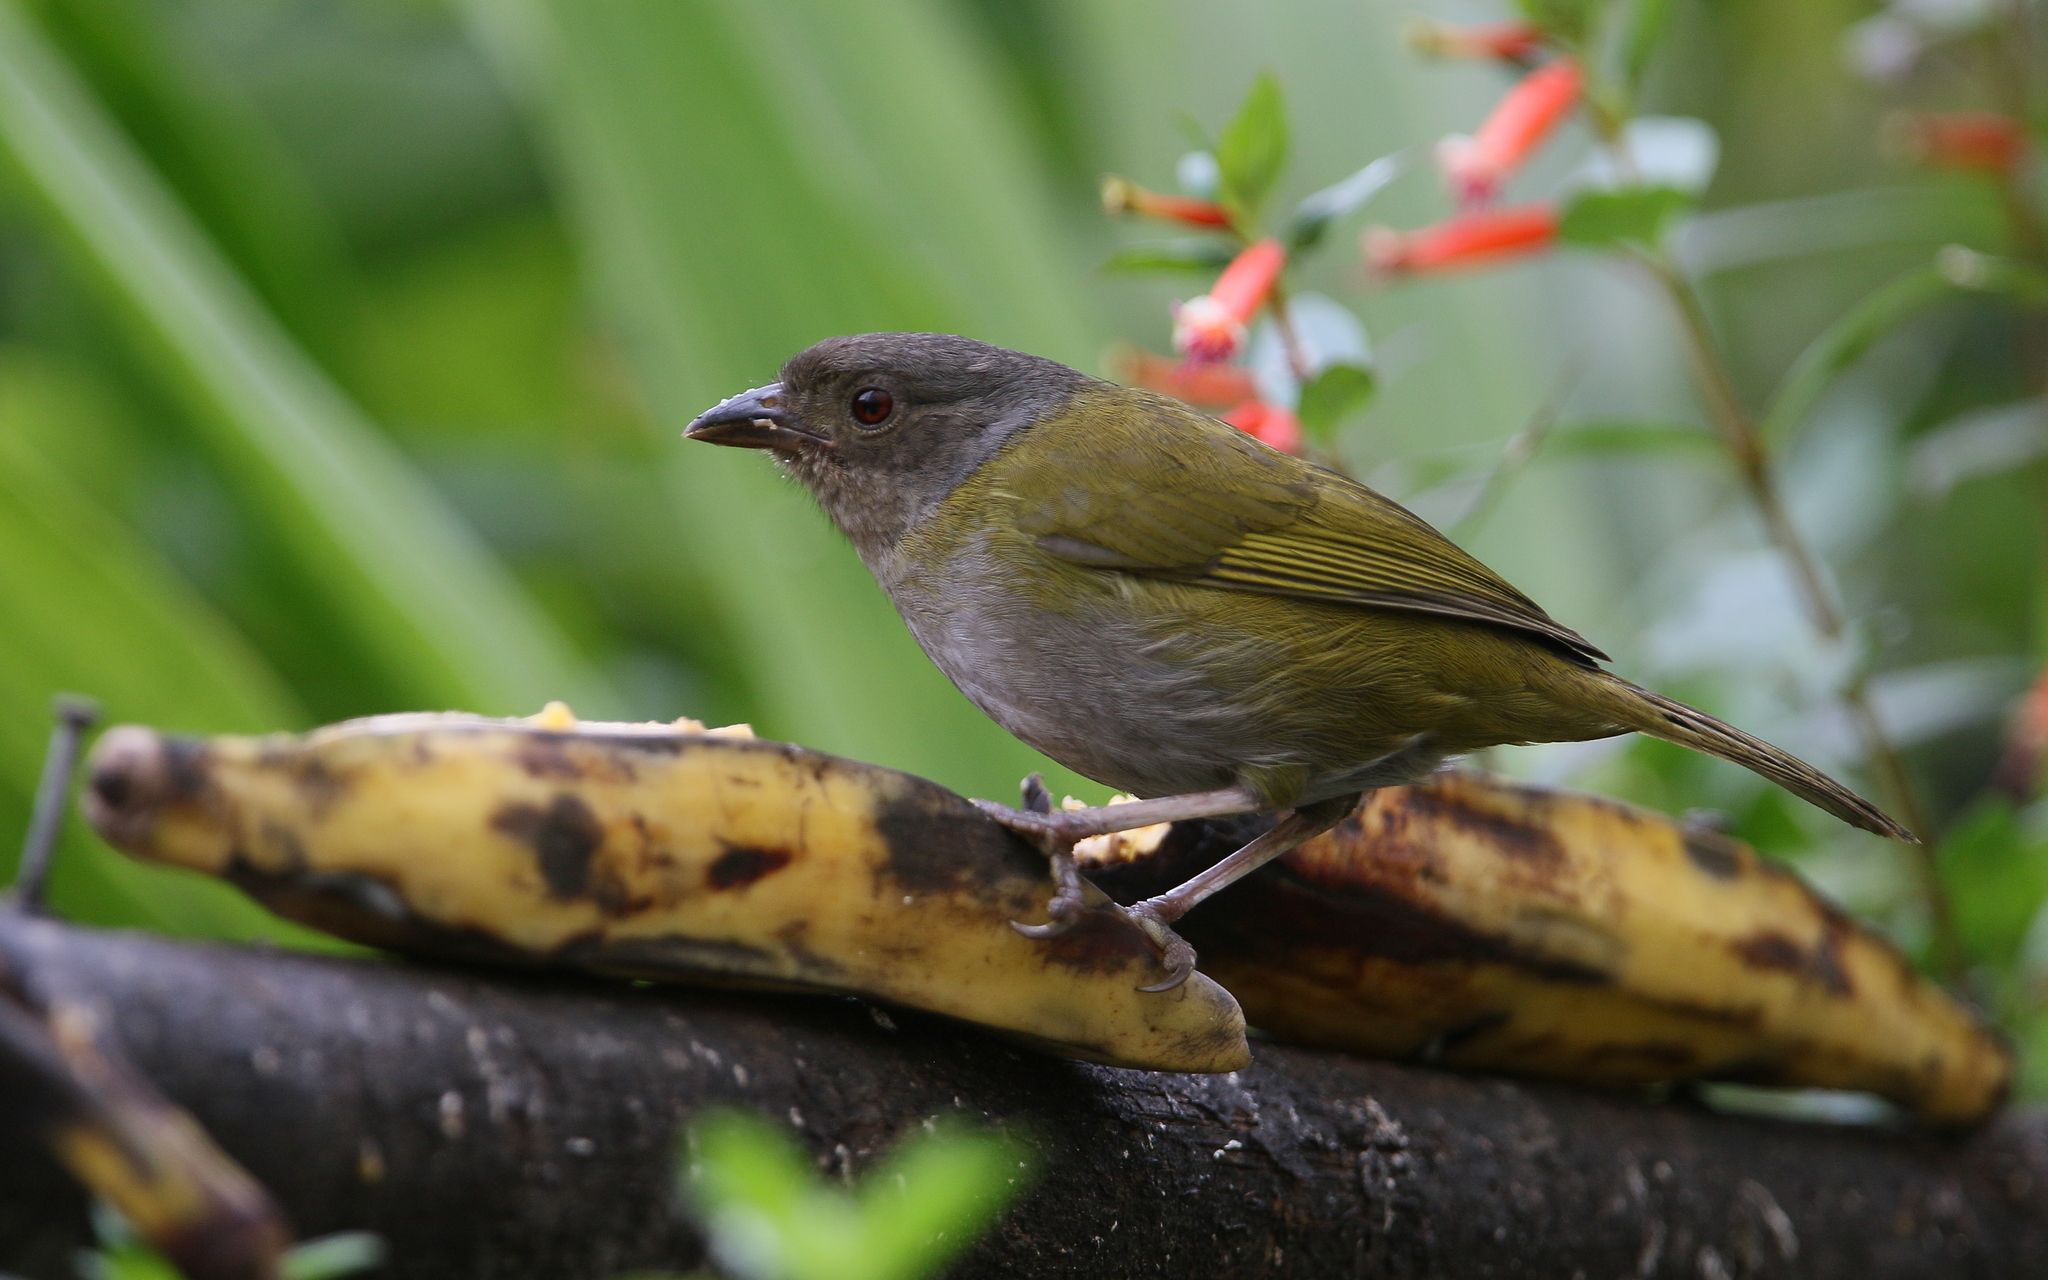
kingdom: Animalia
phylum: Chordata
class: Aves
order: Passeriformes
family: Passerellidae
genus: Chlorospingus
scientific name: Chlorospingus semifuscus
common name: Dusky bush-tanager
